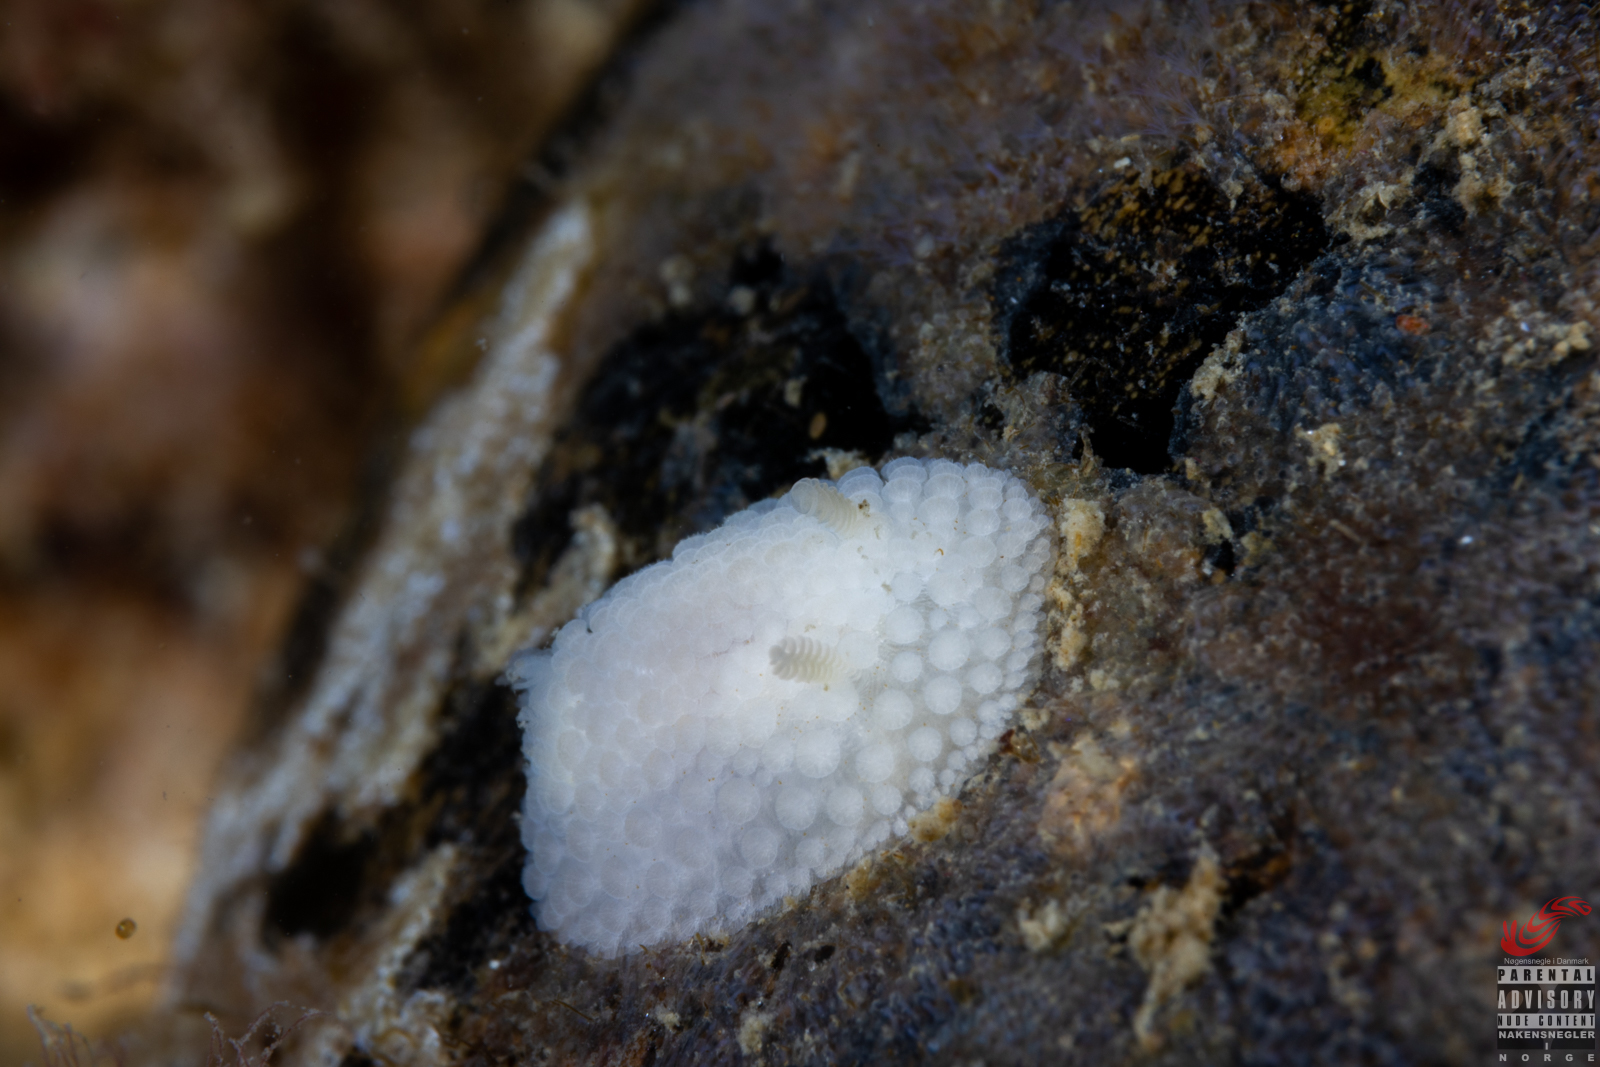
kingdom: Animalia
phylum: Mollusca
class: Gastropoda
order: Nudibranchia
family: Onchidorididae
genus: Onchidoris
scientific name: Onchidoris muricata
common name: Rough doris
